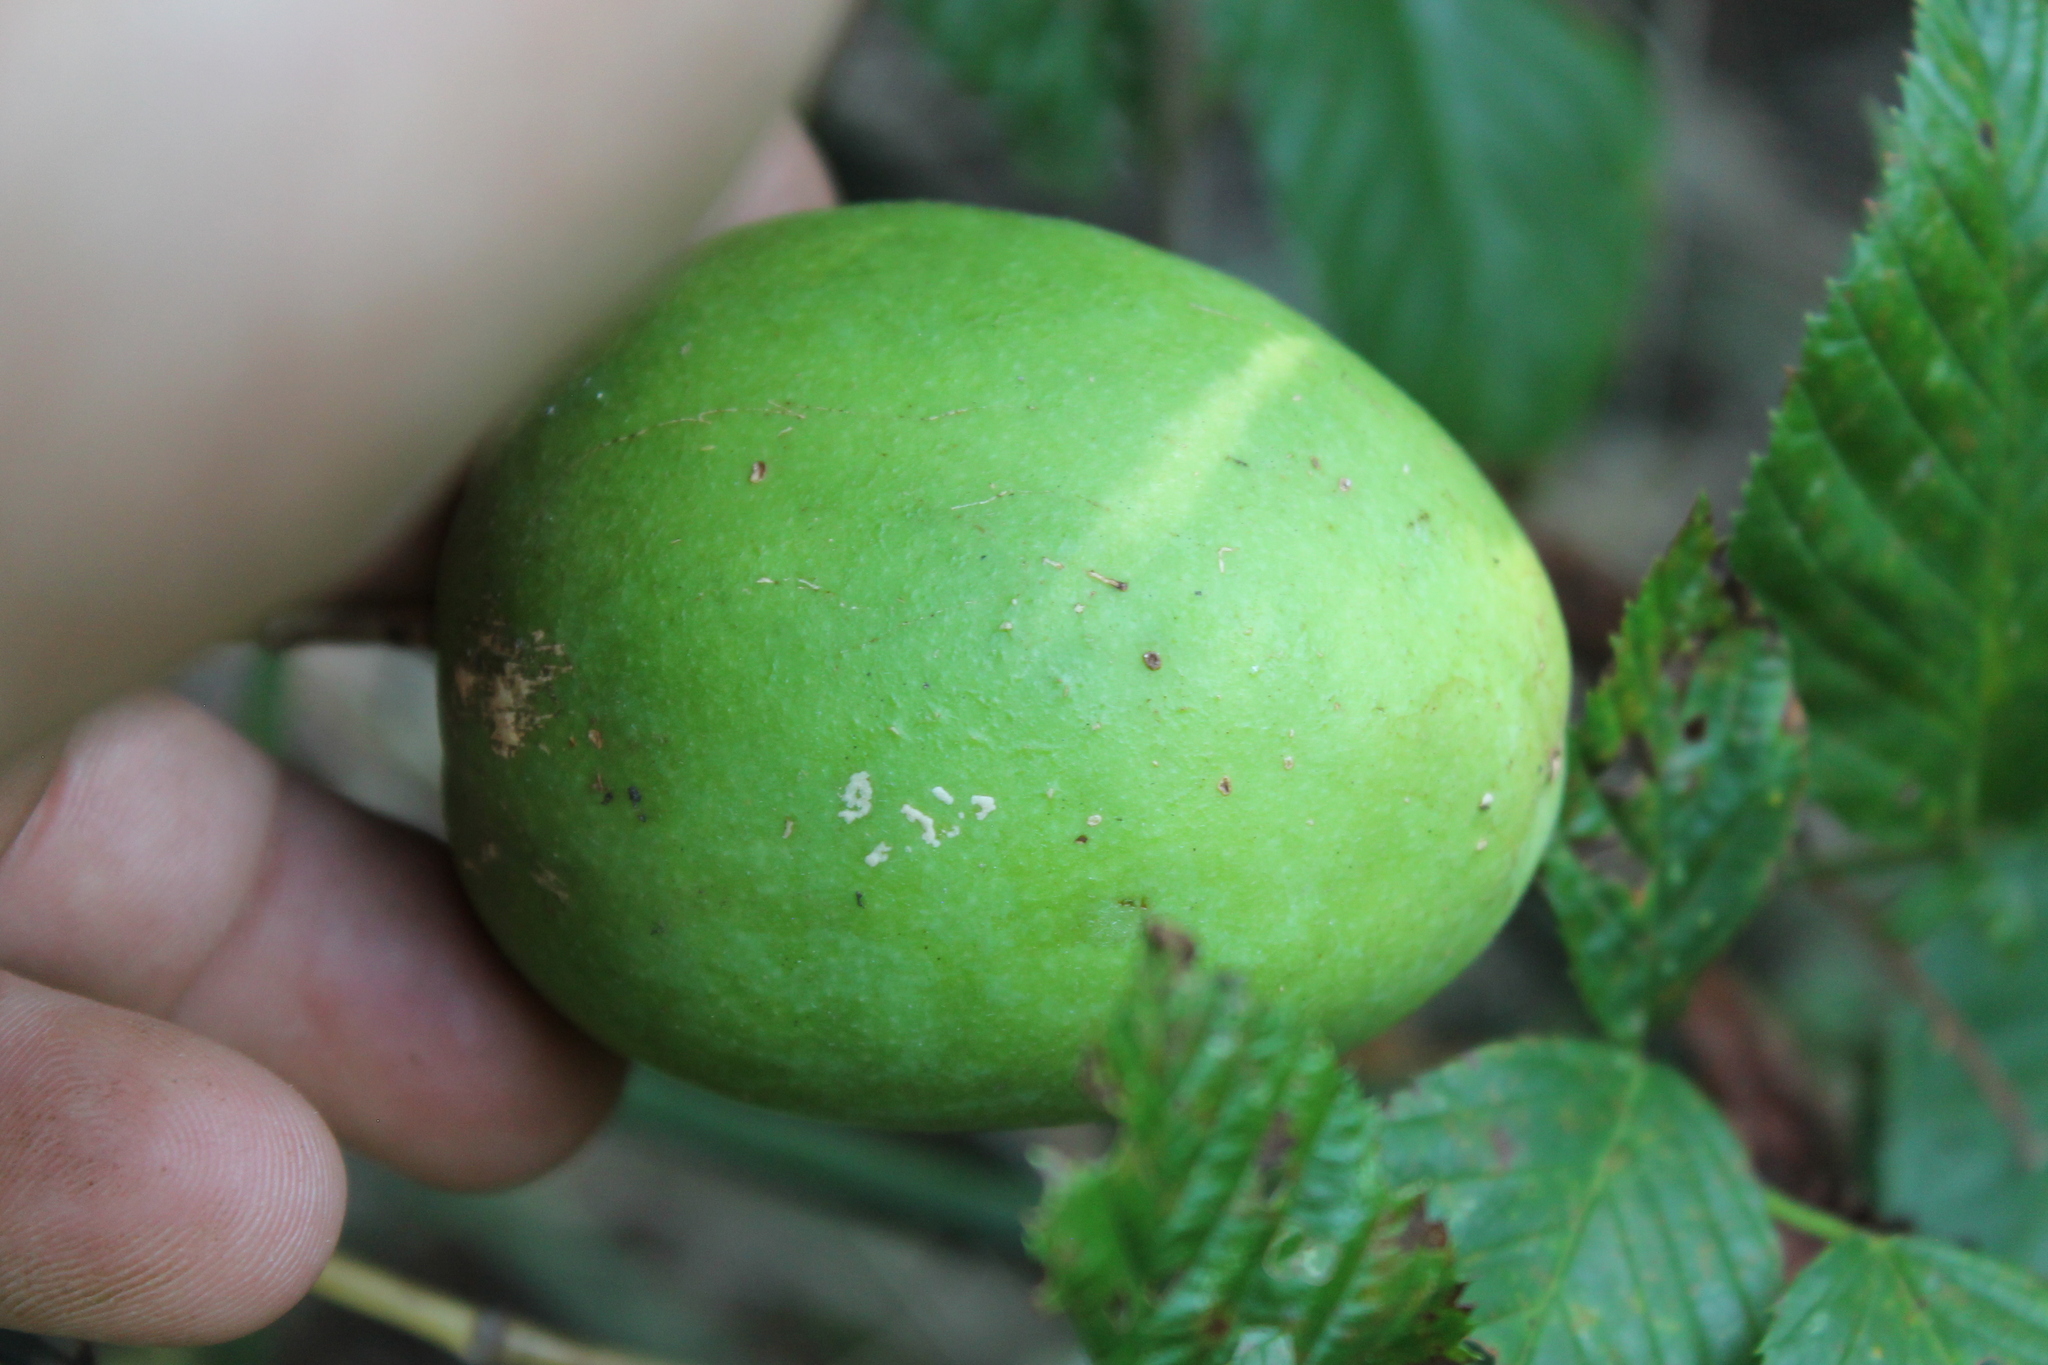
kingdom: Plantae
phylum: Tracheophyta
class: Magnoliopsida
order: Malpighiales
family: Passifloraceae
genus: Passiflora
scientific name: Passiflora incarnata
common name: Apricot-vine
